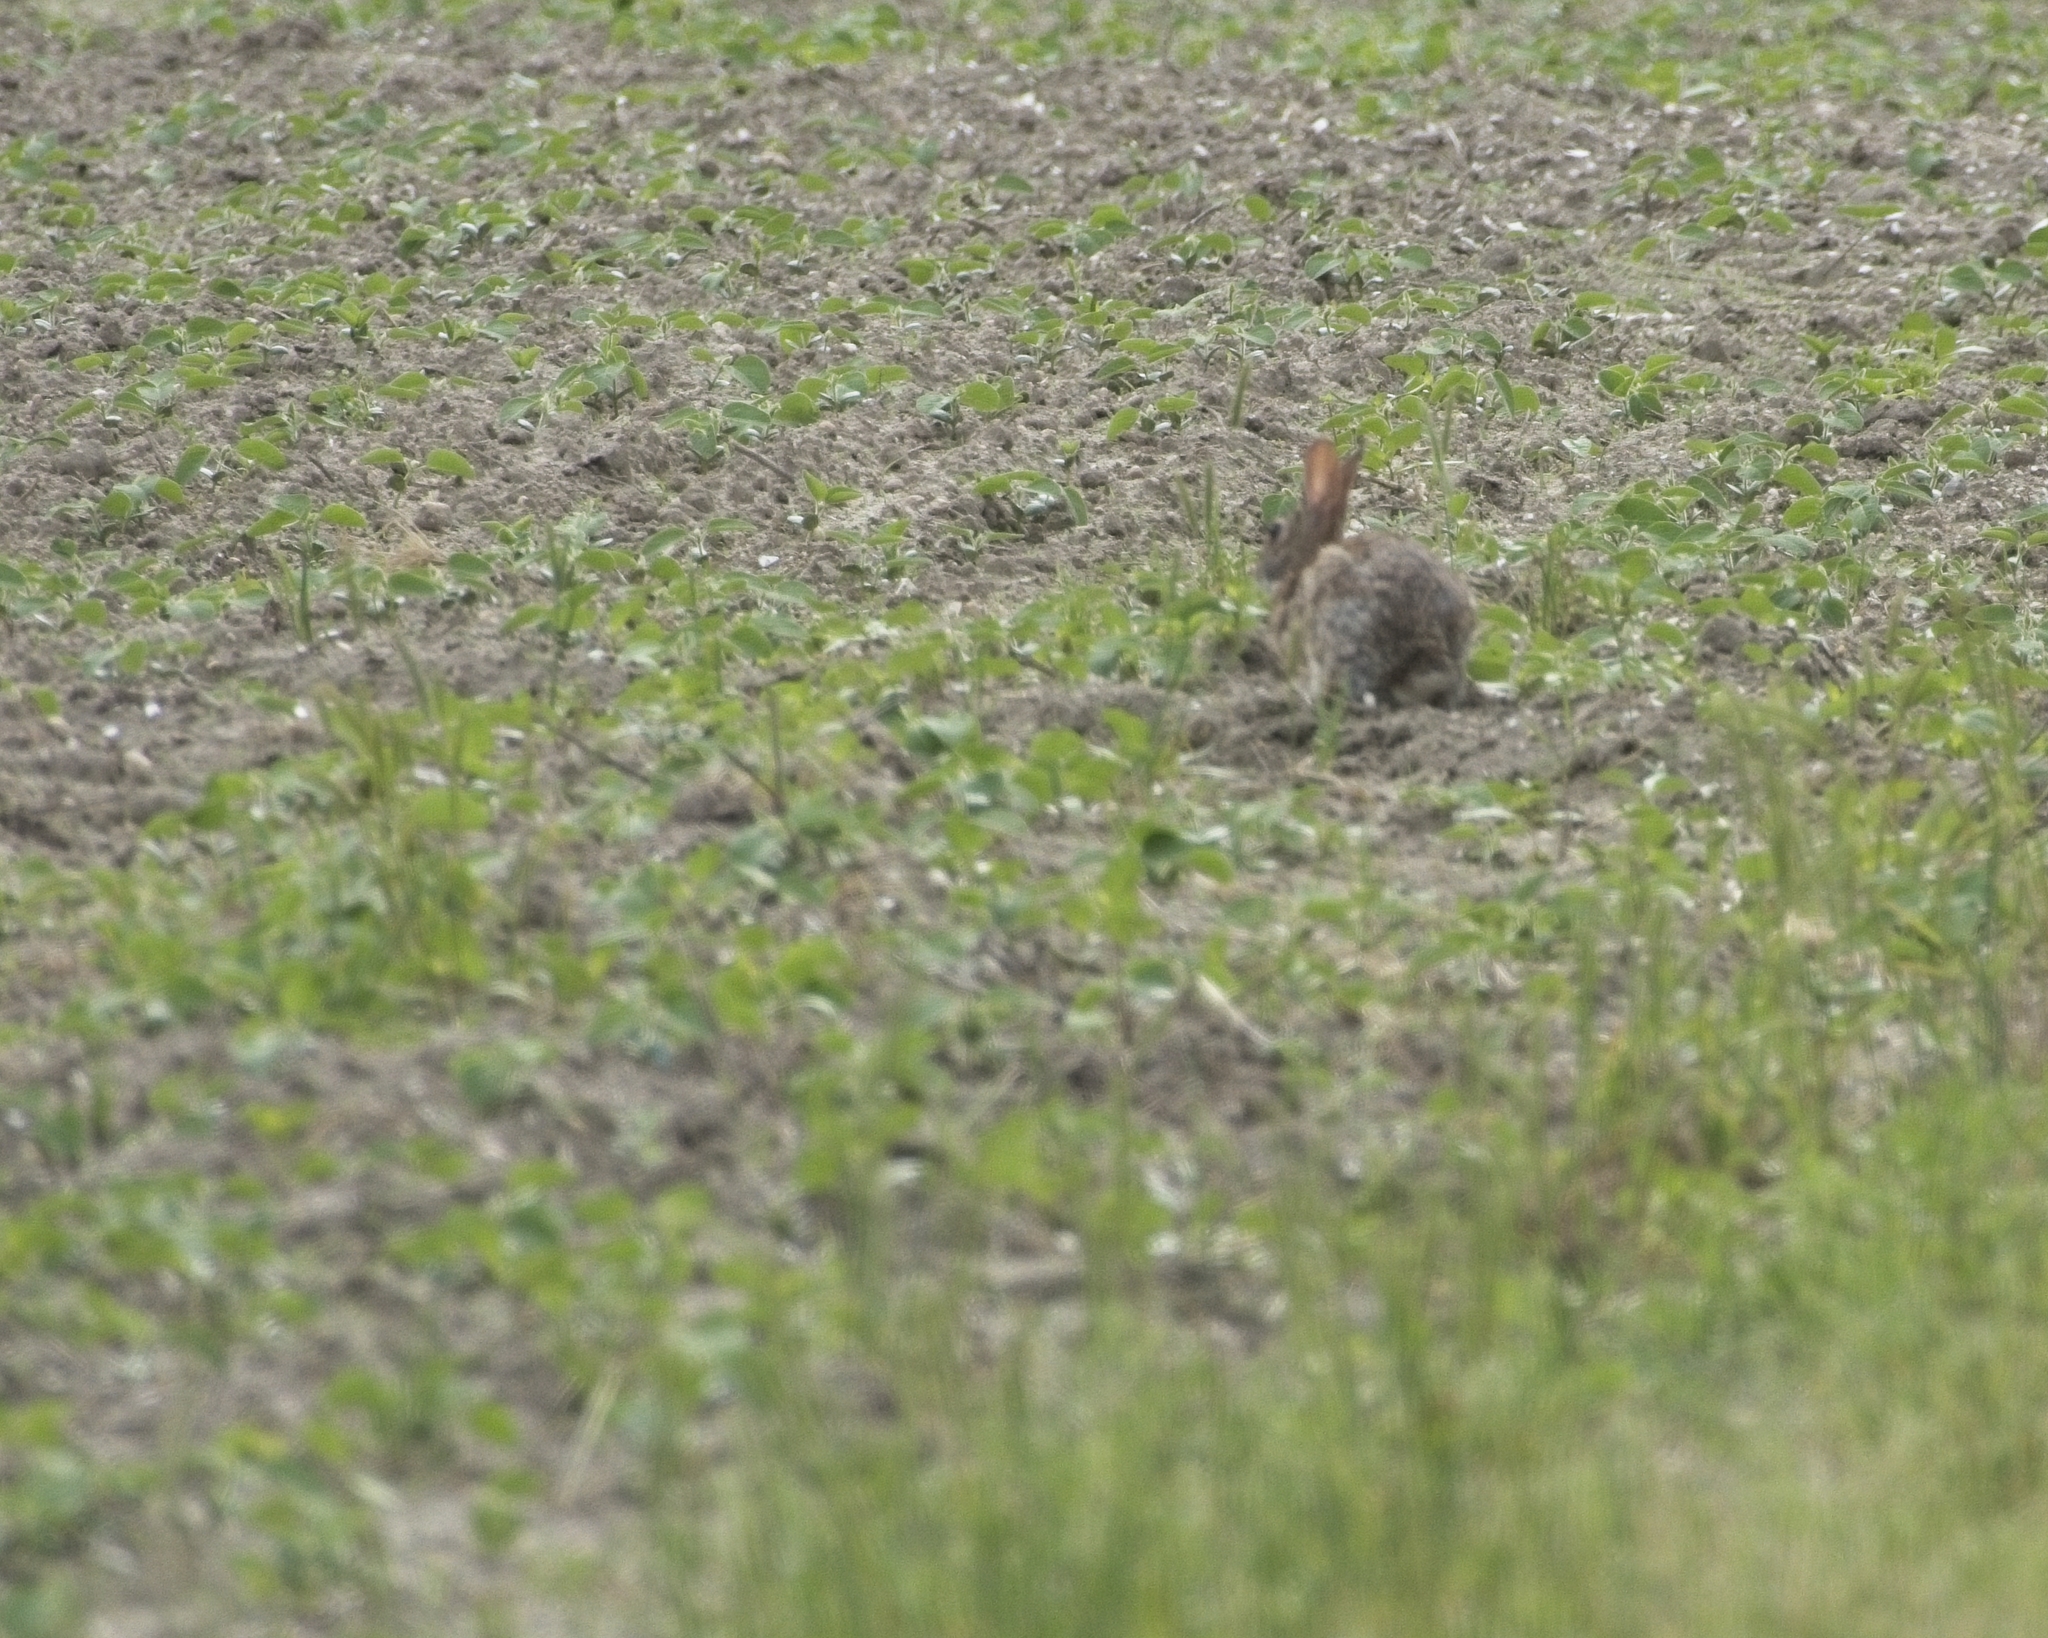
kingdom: Animalia
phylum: Chordata
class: Mammalia
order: Lagomorpha
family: Leporidae
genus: Sylvilagus
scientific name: Sylvilagus floridanus
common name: Eastern cottontail
